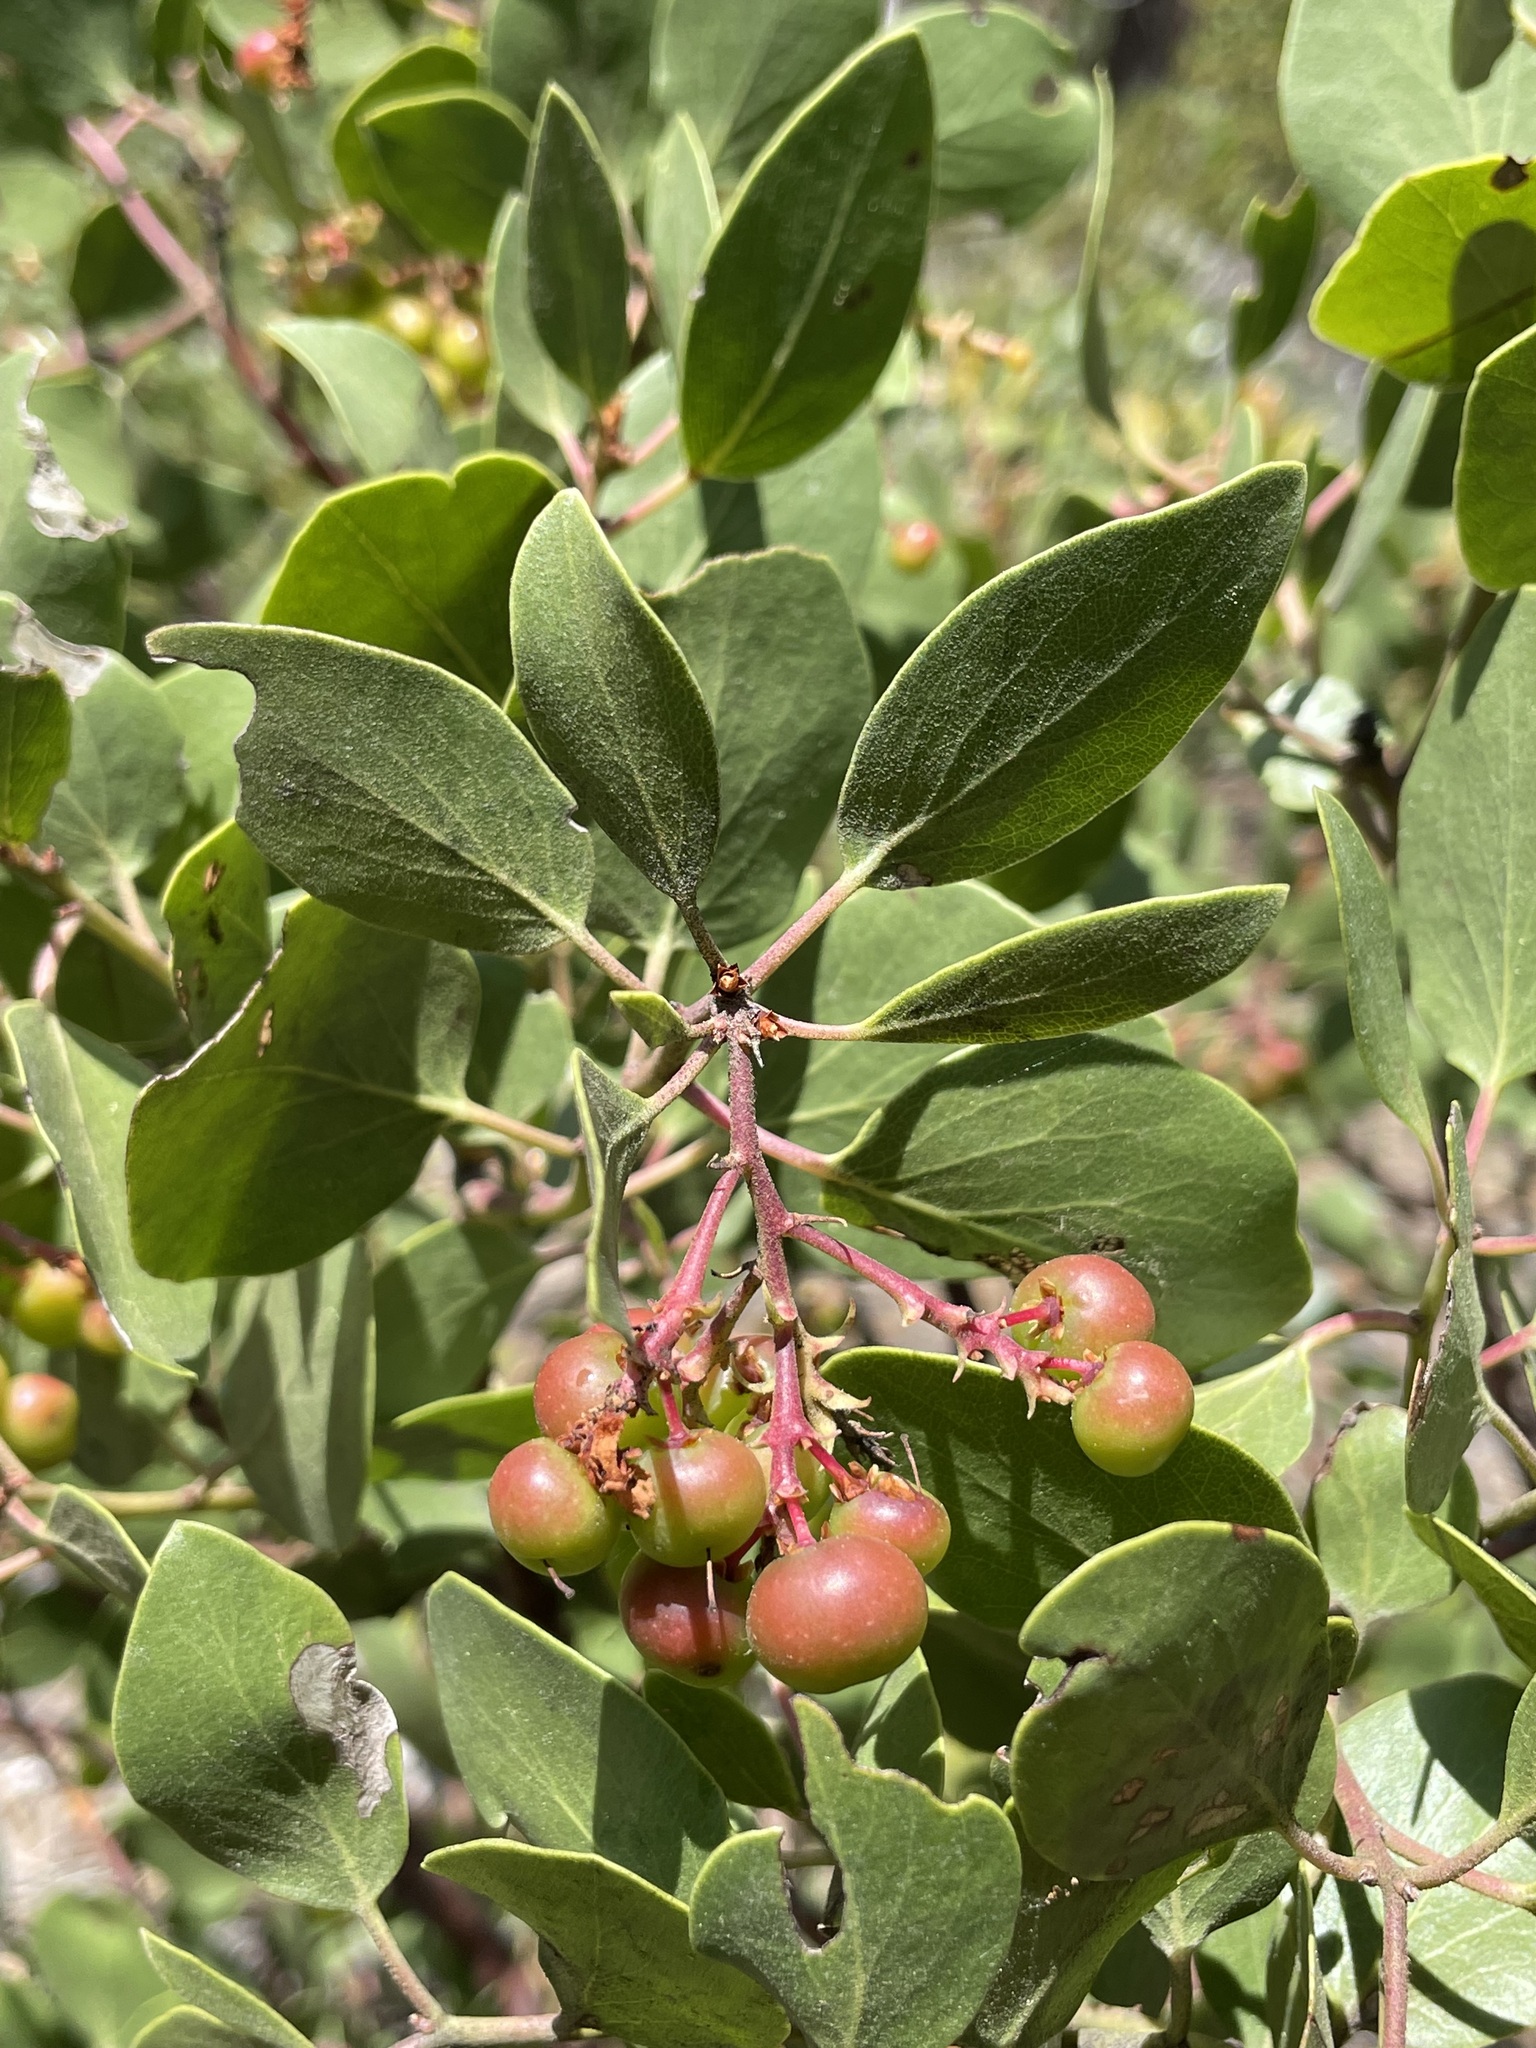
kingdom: Plantae
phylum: Tracheophyta
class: Magnoliopsida
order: Ericales
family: Ericaceae
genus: Arctostaphylos
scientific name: Arctostaphylos patula
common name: Green-leaf manzanita
